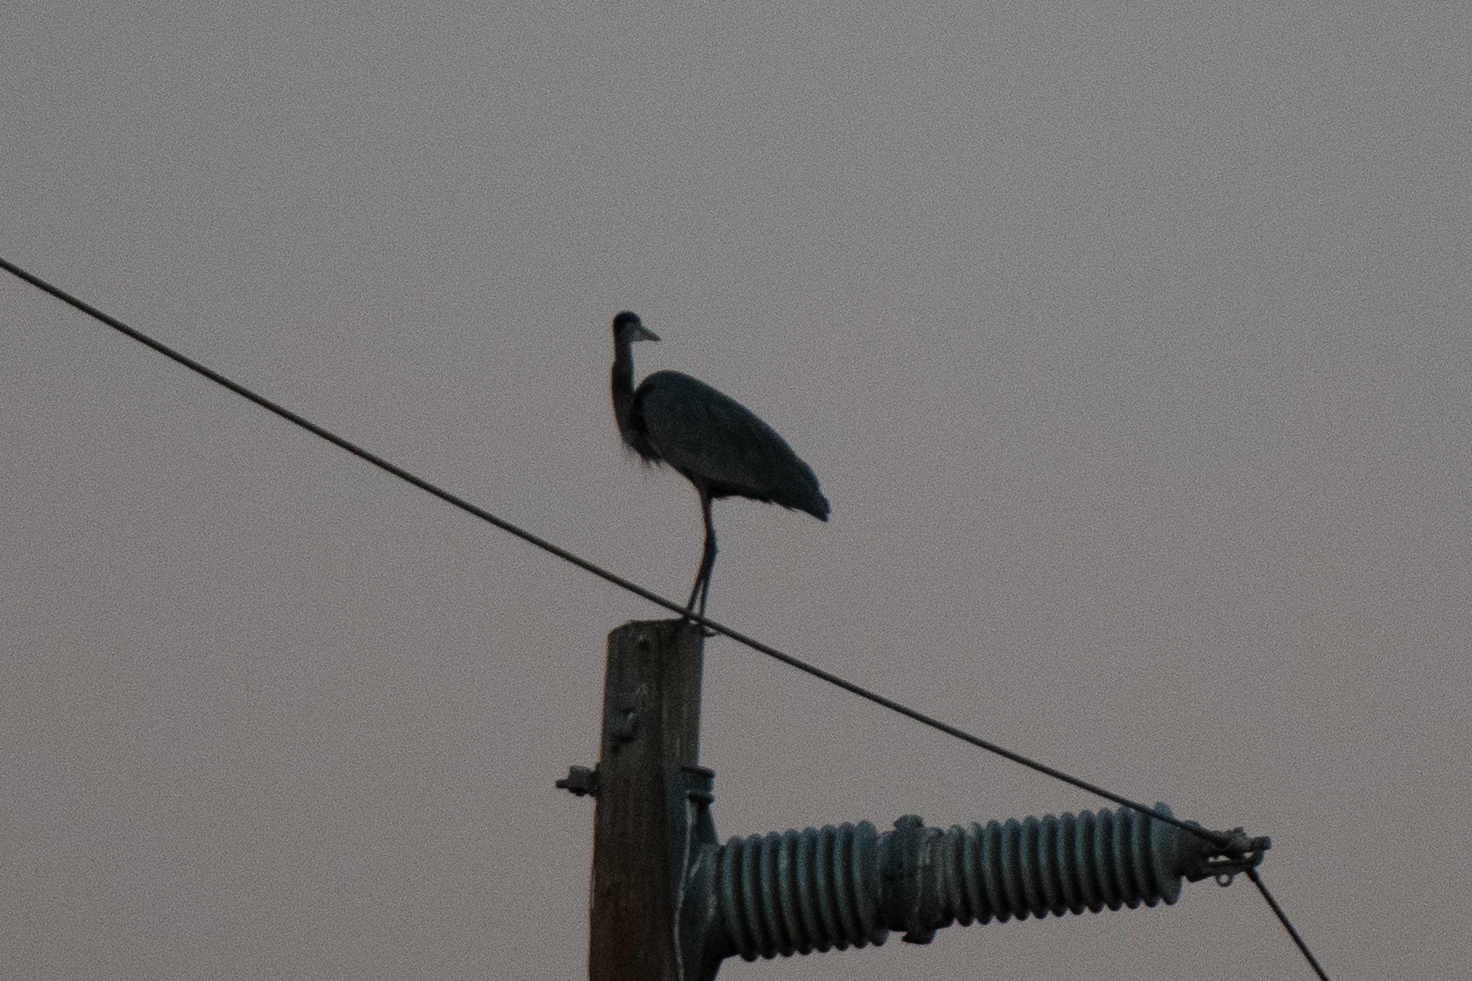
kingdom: Animalia
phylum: Chordata
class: Aves
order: Pelecaniformes
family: Ardeidae
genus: Ardea
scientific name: Ardea herodias
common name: Great blue heron
